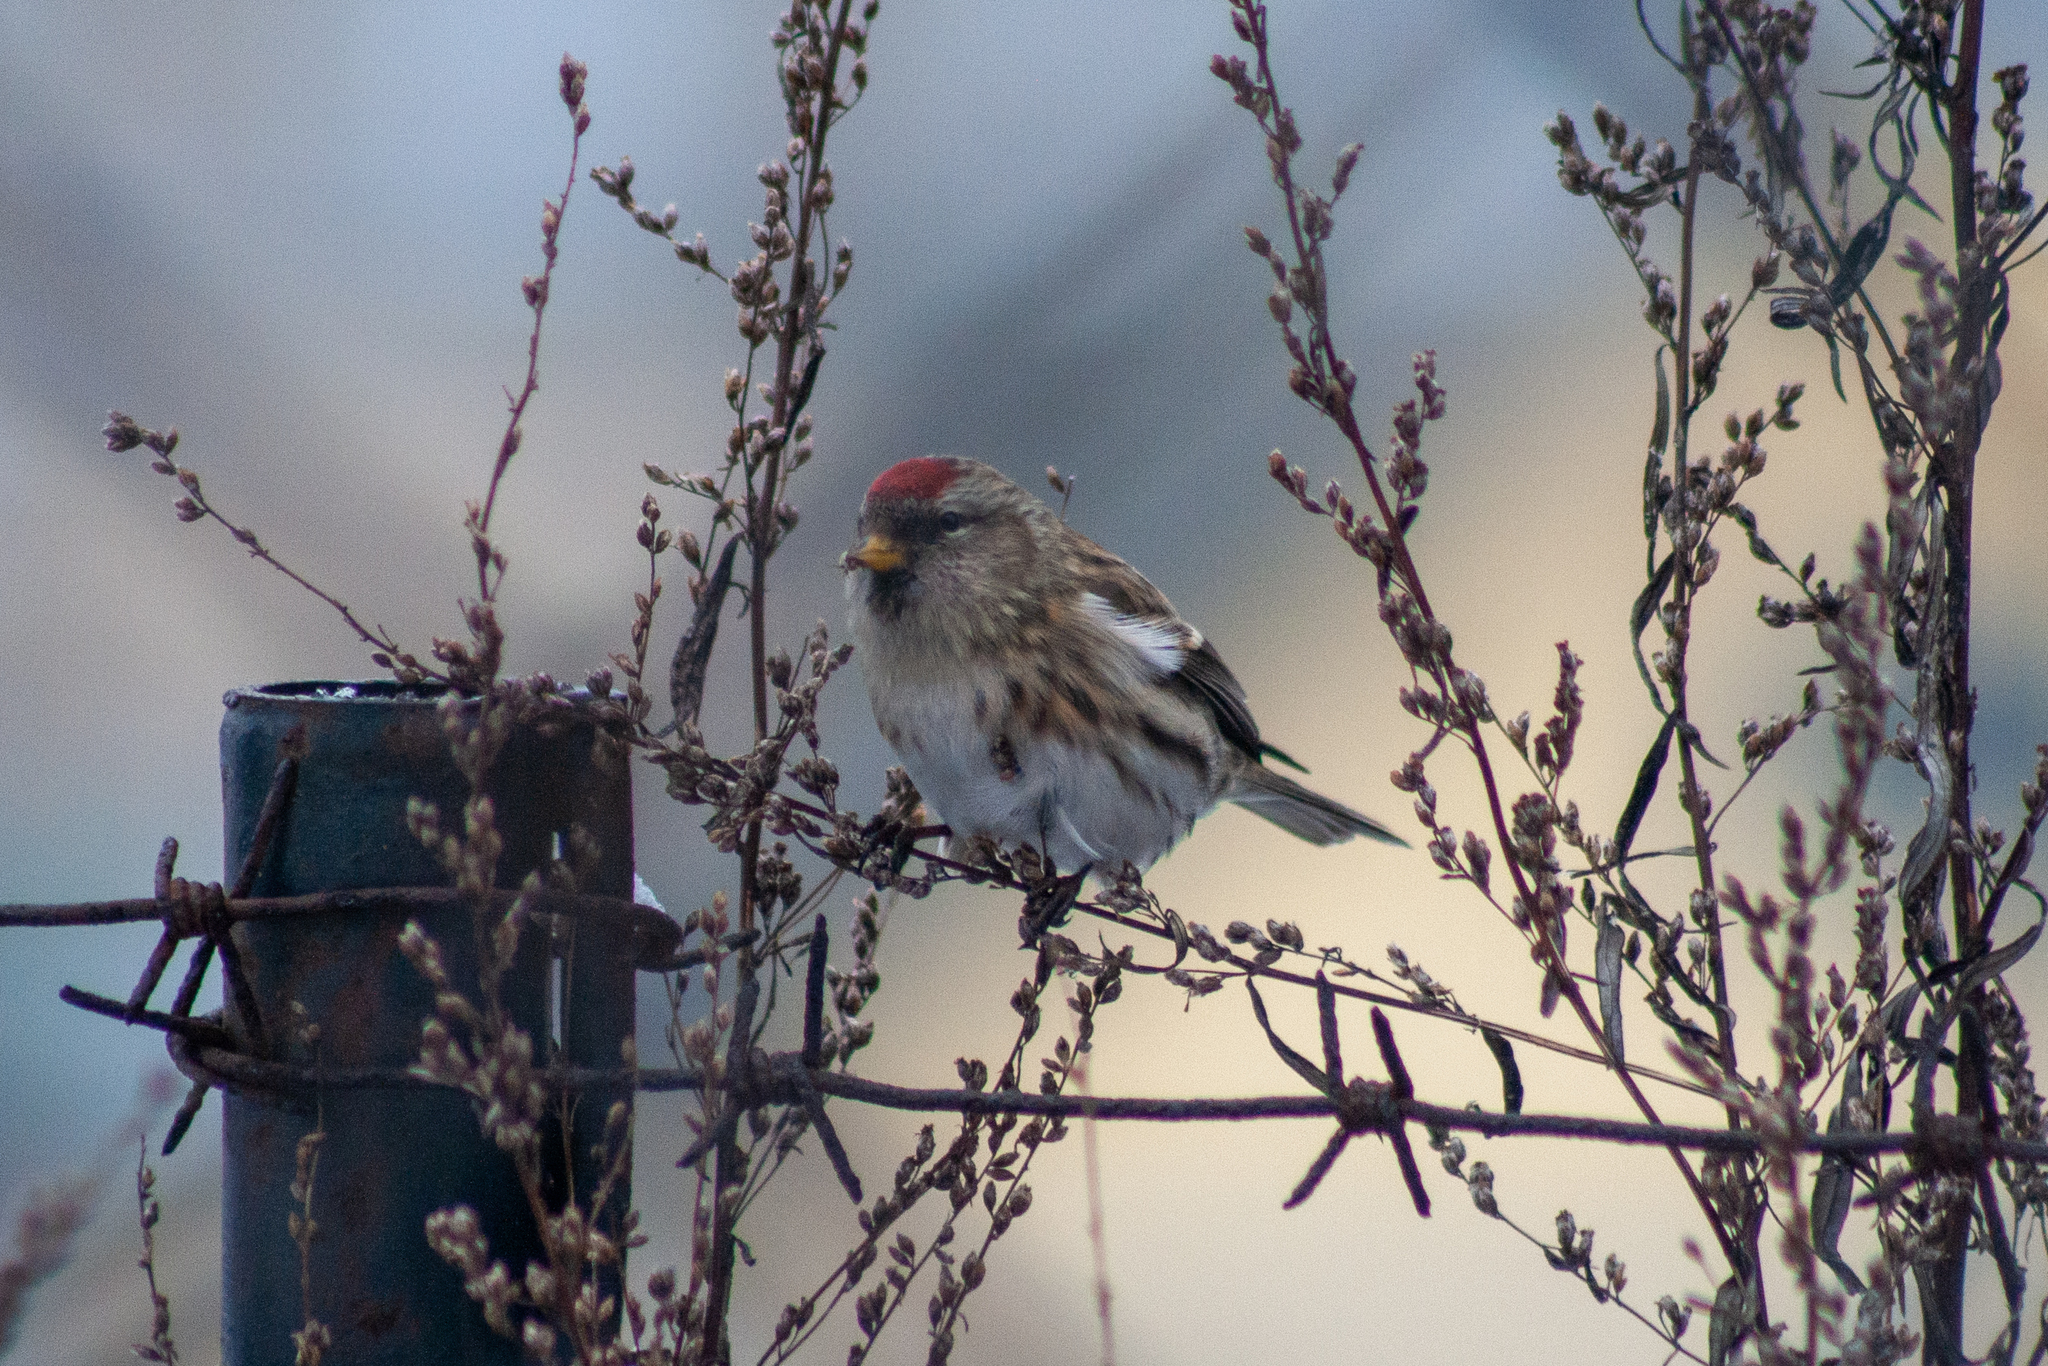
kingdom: Animalia
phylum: Chordata
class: Aves
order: Passeriformes
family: Fringillidae
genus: Acanthis
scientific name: Acanthis flammea
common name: Common redpoll
